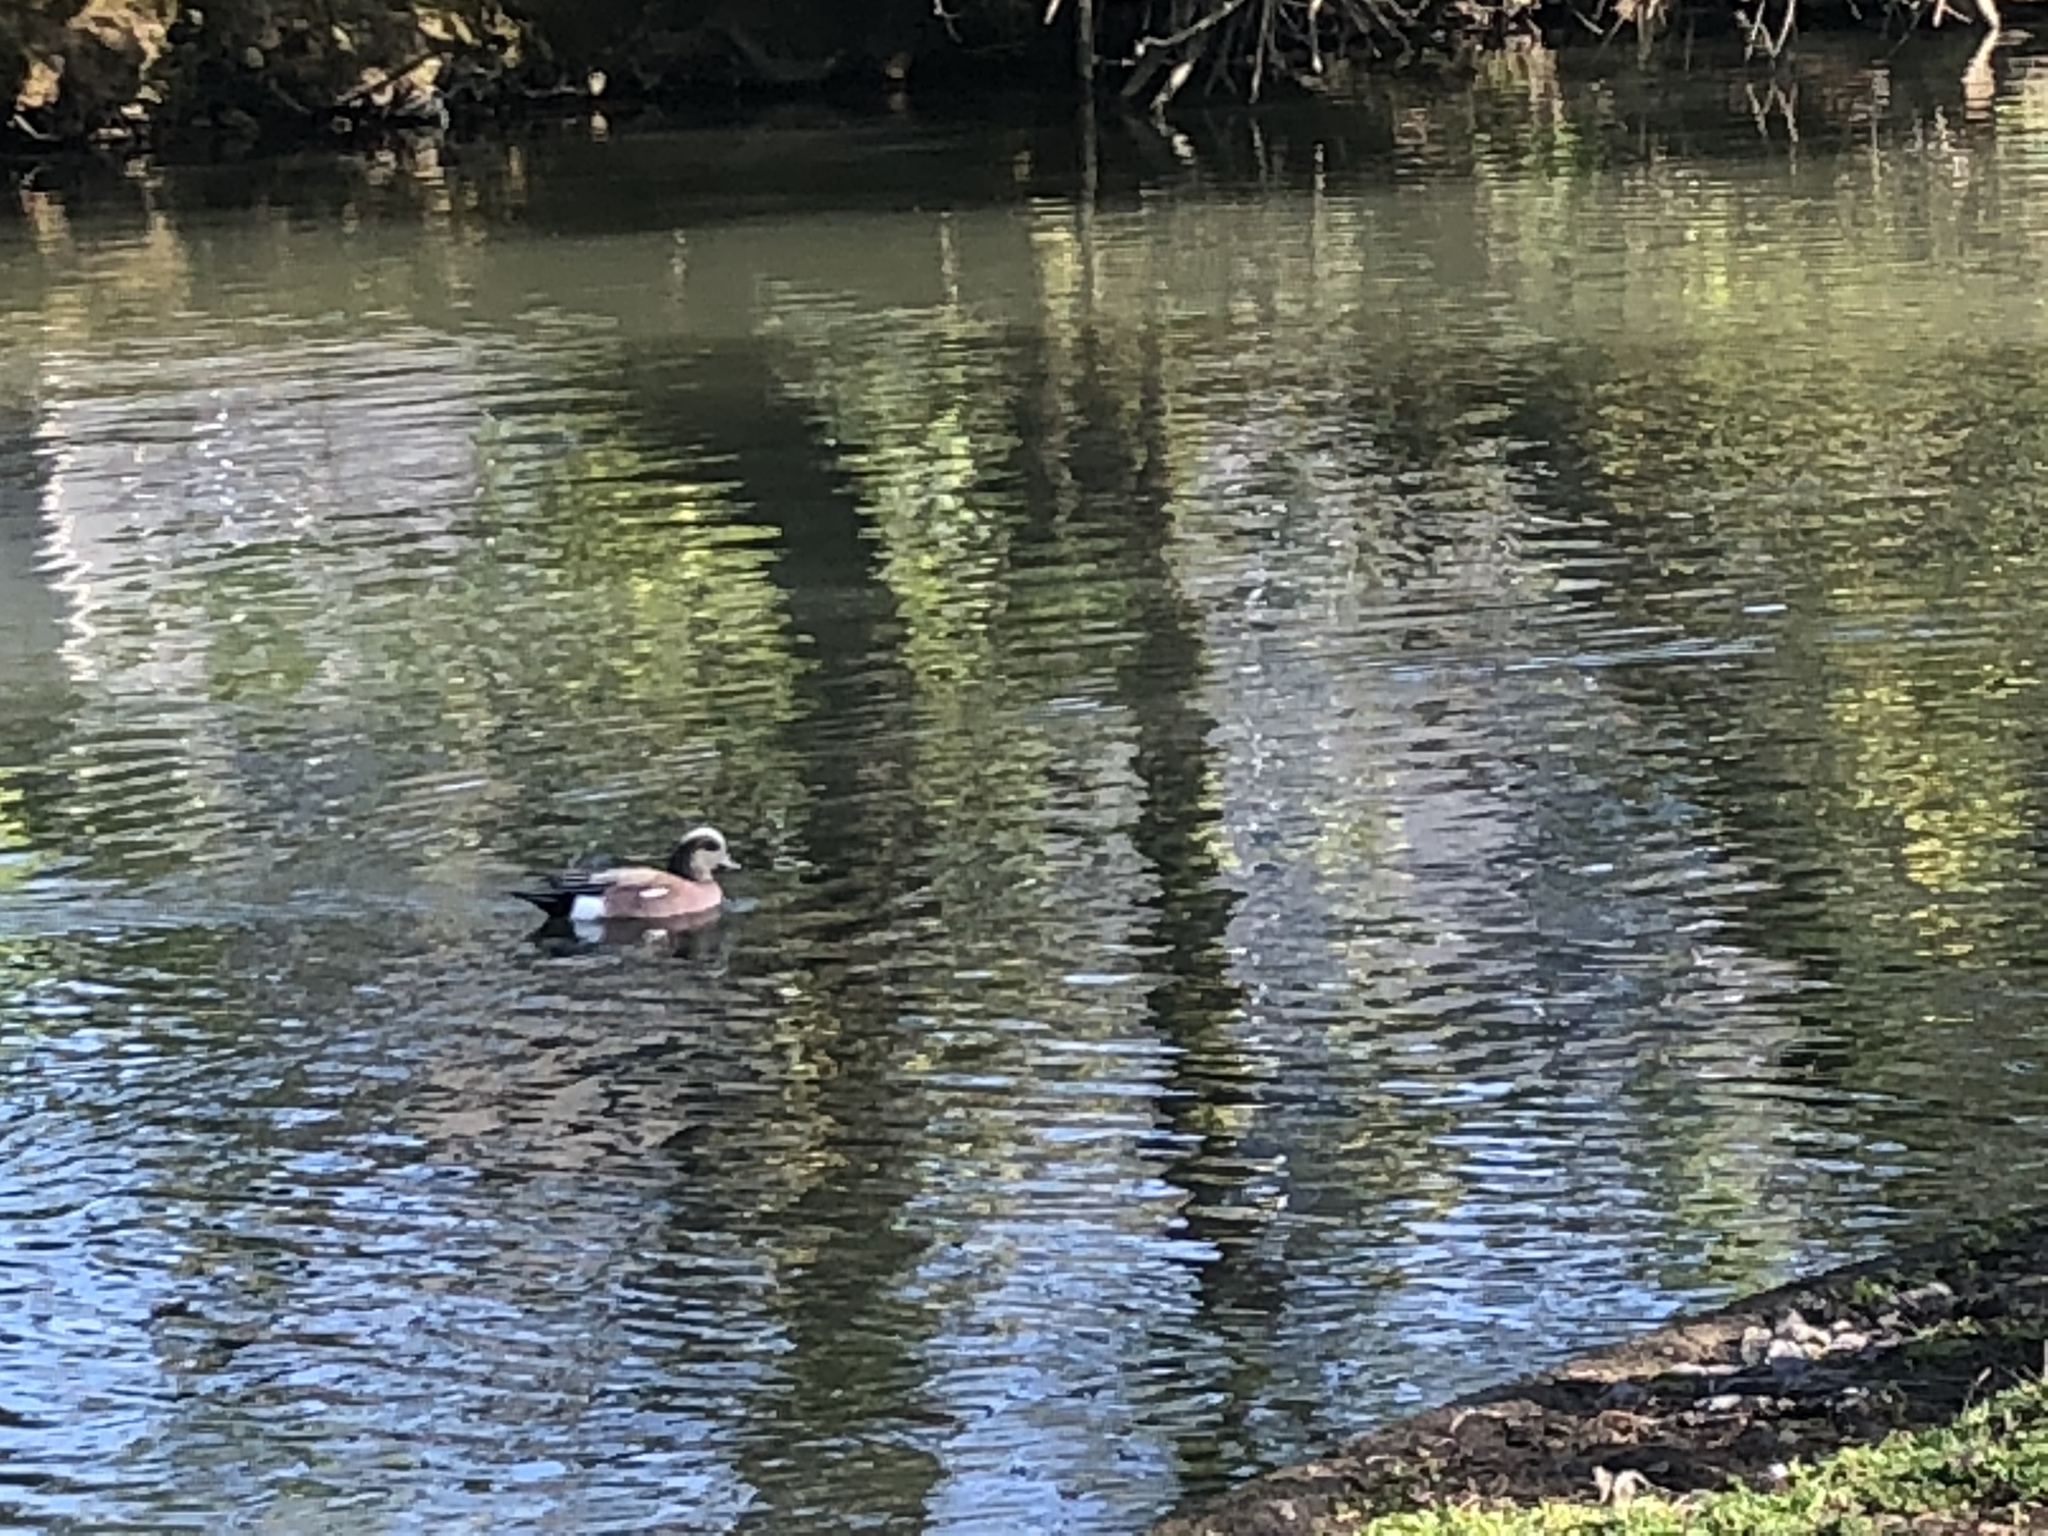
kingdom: Animalia
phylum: Chordata
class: Aves
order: Anseriformes
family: Anatidae
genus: Mareca
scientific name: Mareca americana
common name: American wigeon
